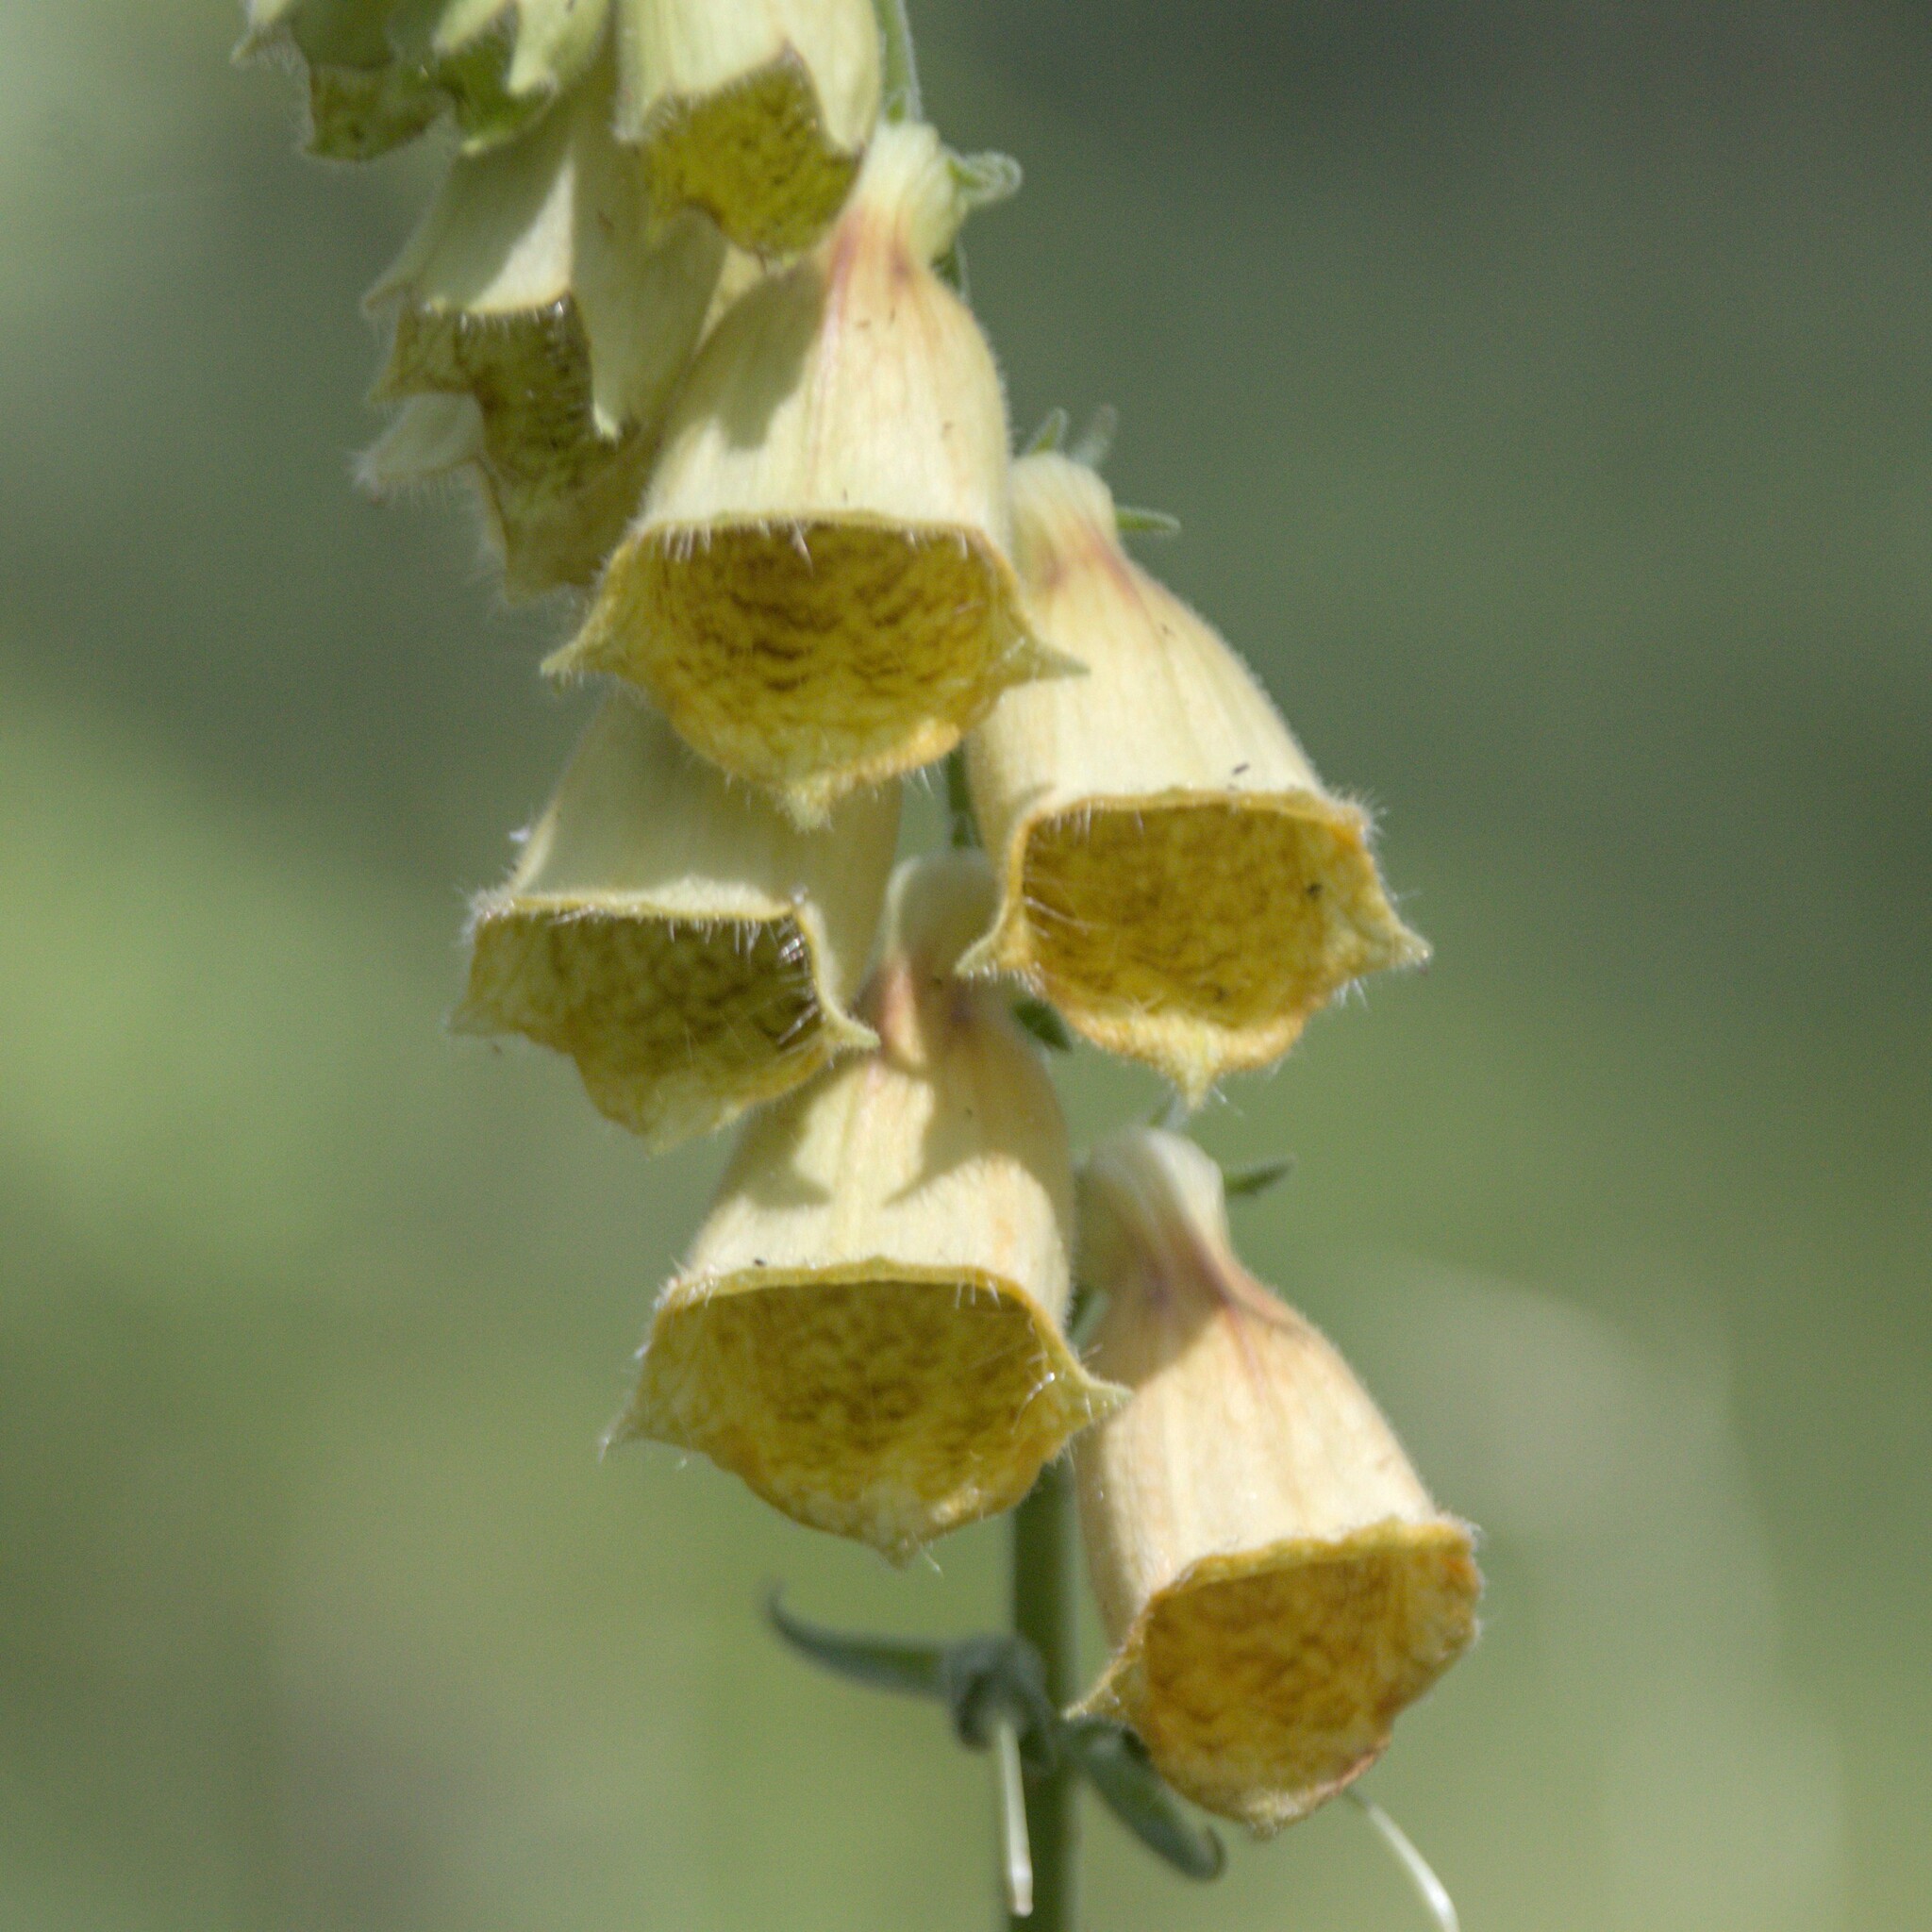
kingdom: Plantae
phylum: Tracheophyta
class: Magnoliopsida
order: Lamiales
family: Plantaginaceae
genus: Digitalis
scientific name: Digitalis grandiflora
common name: Yellow foxglove
